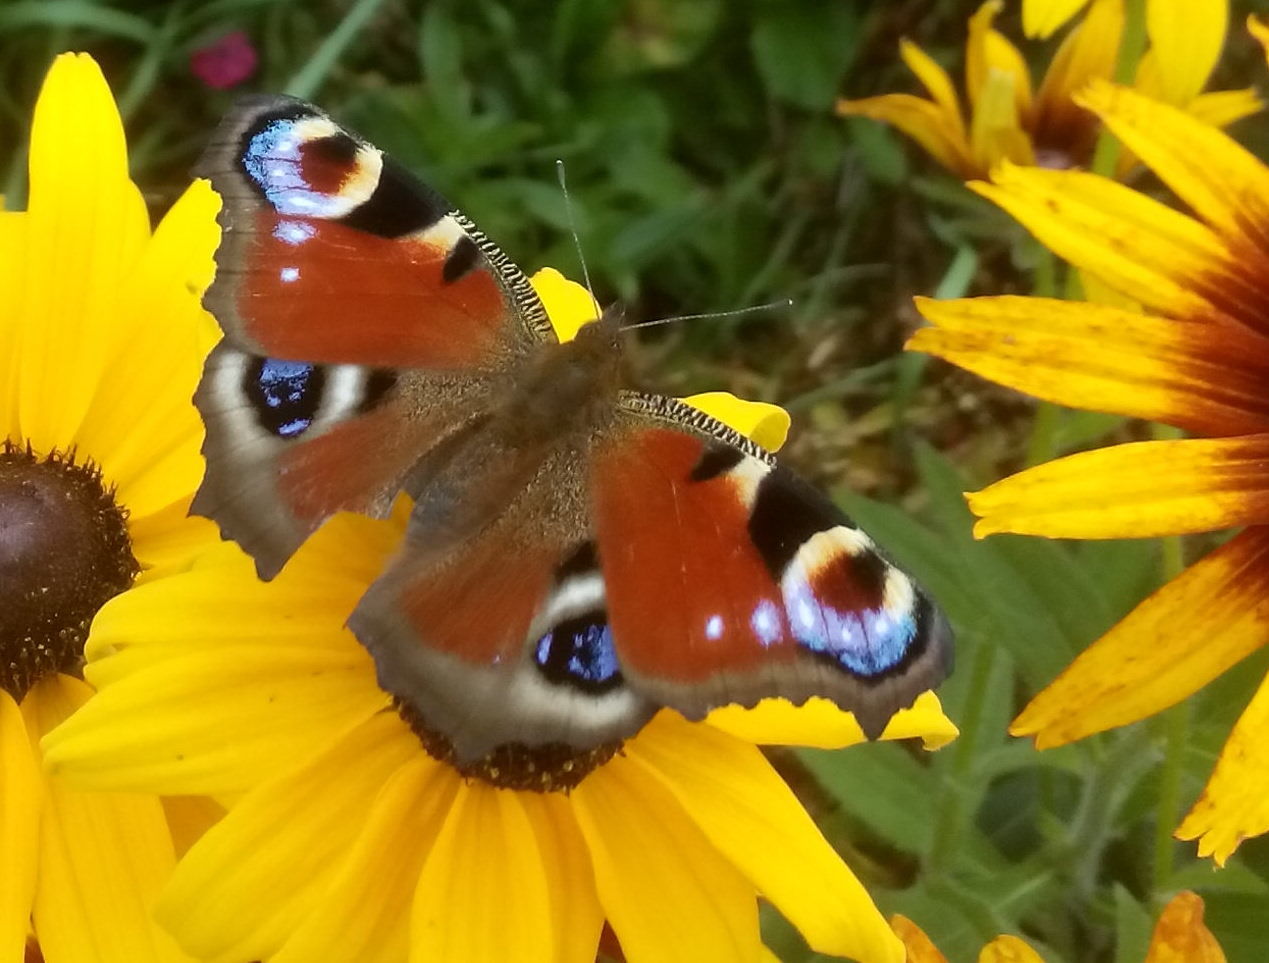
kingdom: Animalia
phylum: Arthropoda
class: Insecta
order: Lepidoptera
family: Nymphalidae
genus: Aglais
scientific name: Aglais io
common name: Peacock
